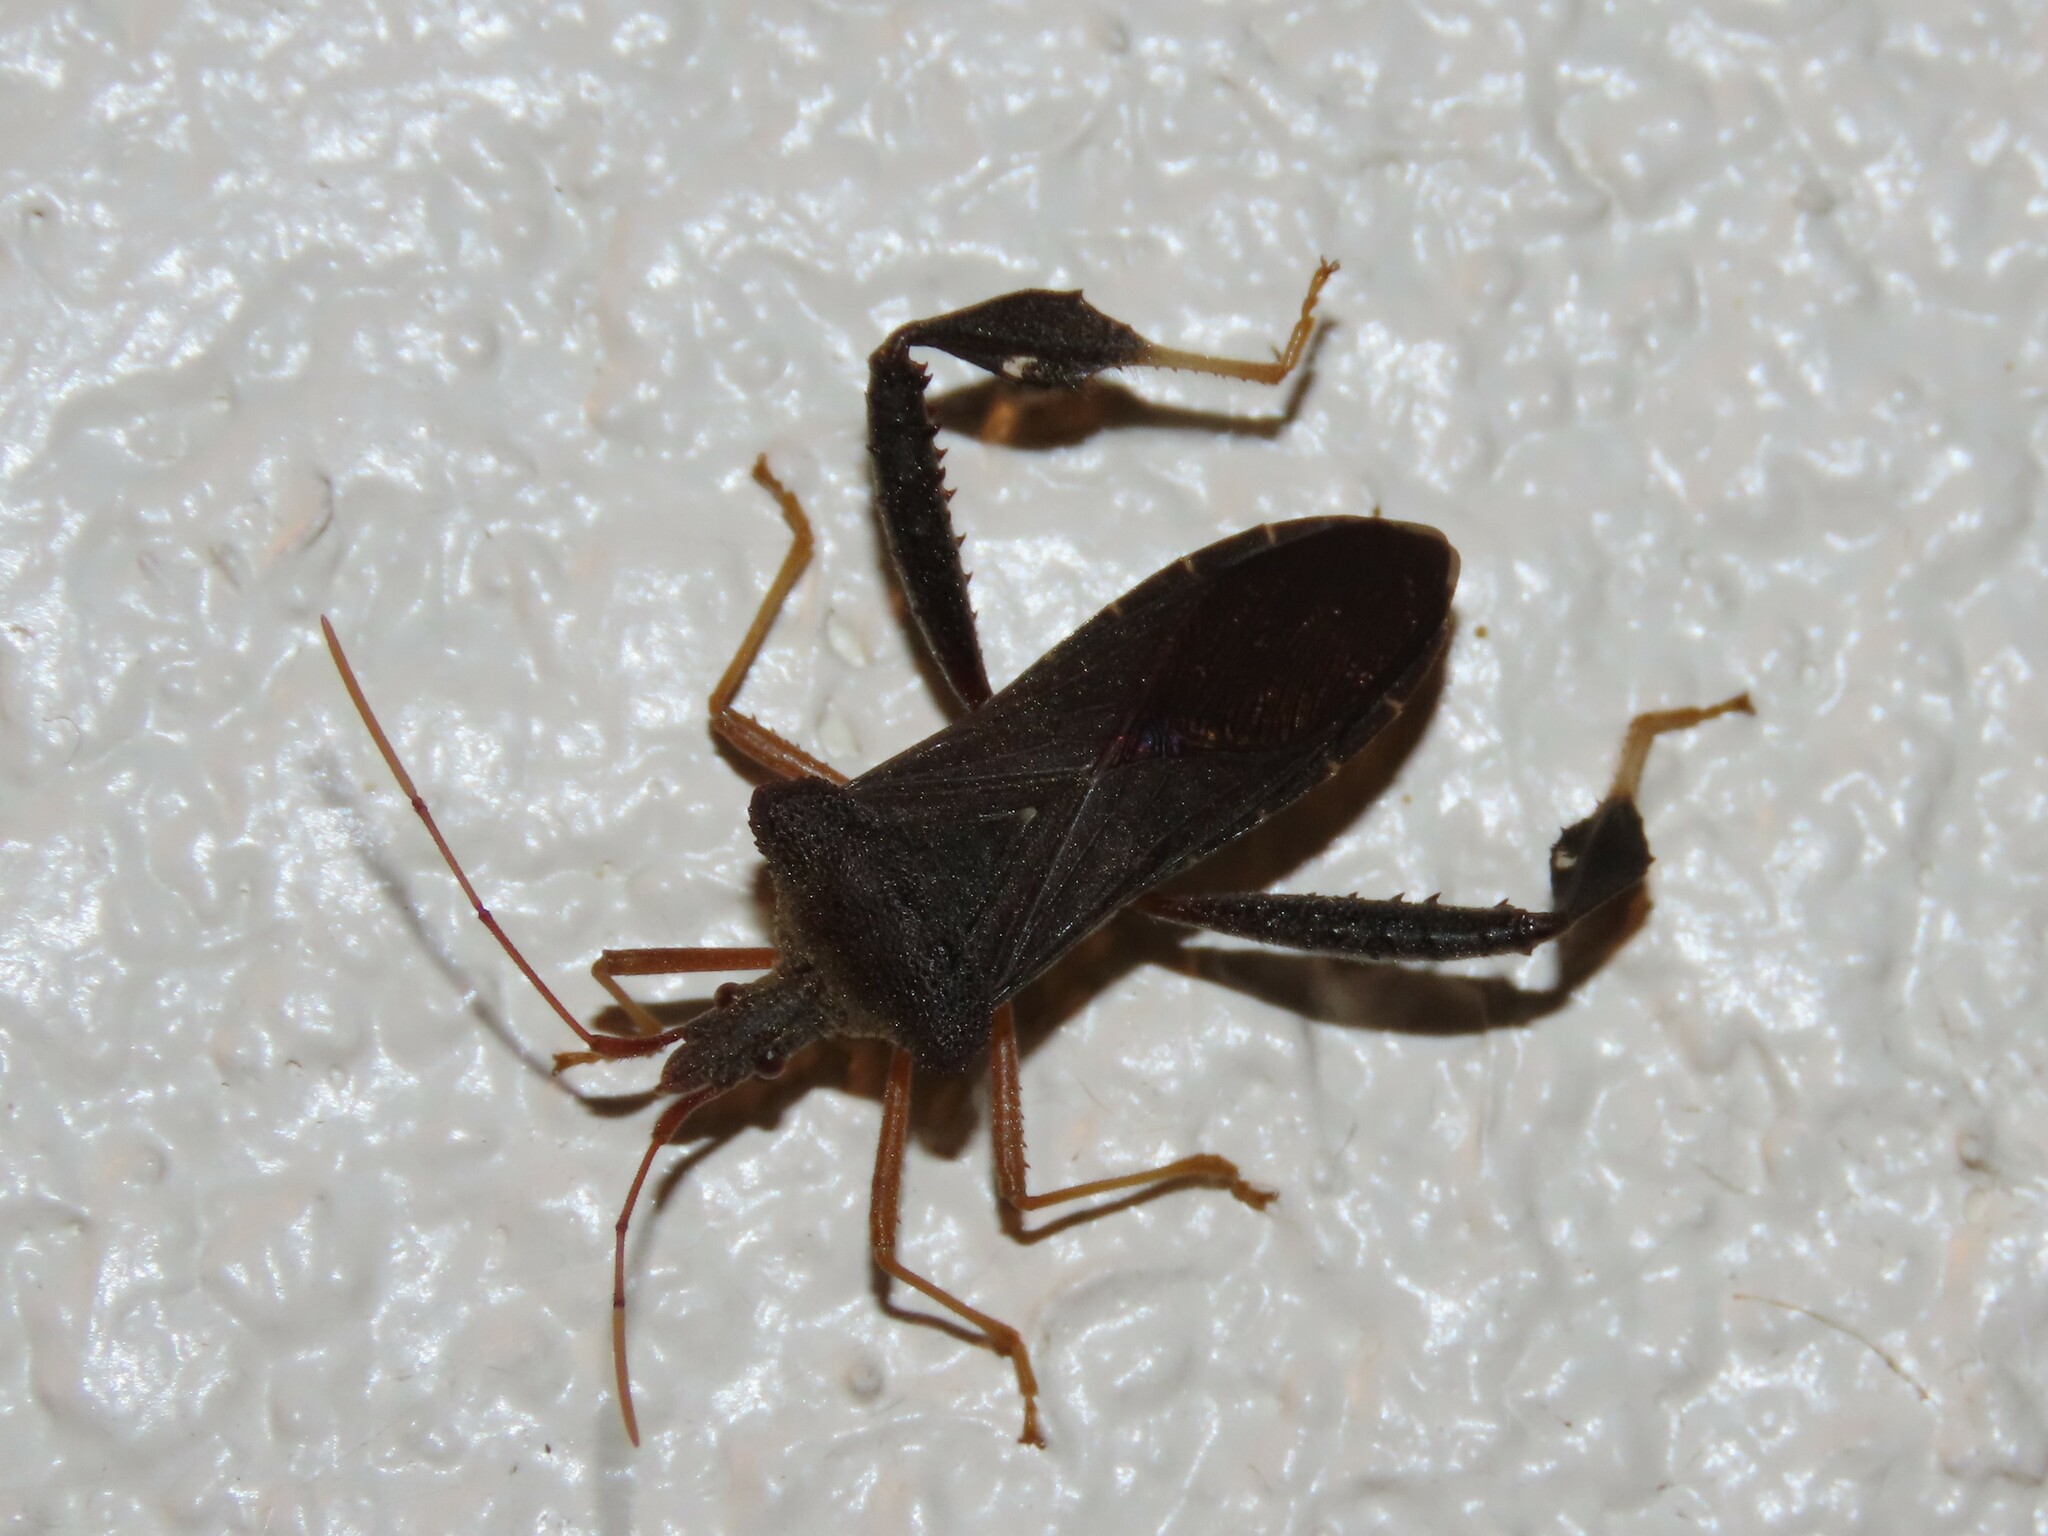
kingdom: Animalia
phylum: Arthropoda
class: Insecta
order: Hemiptera
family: Coreidae
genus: Leptoglossus
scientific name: Leptoglossus fulvicornis
